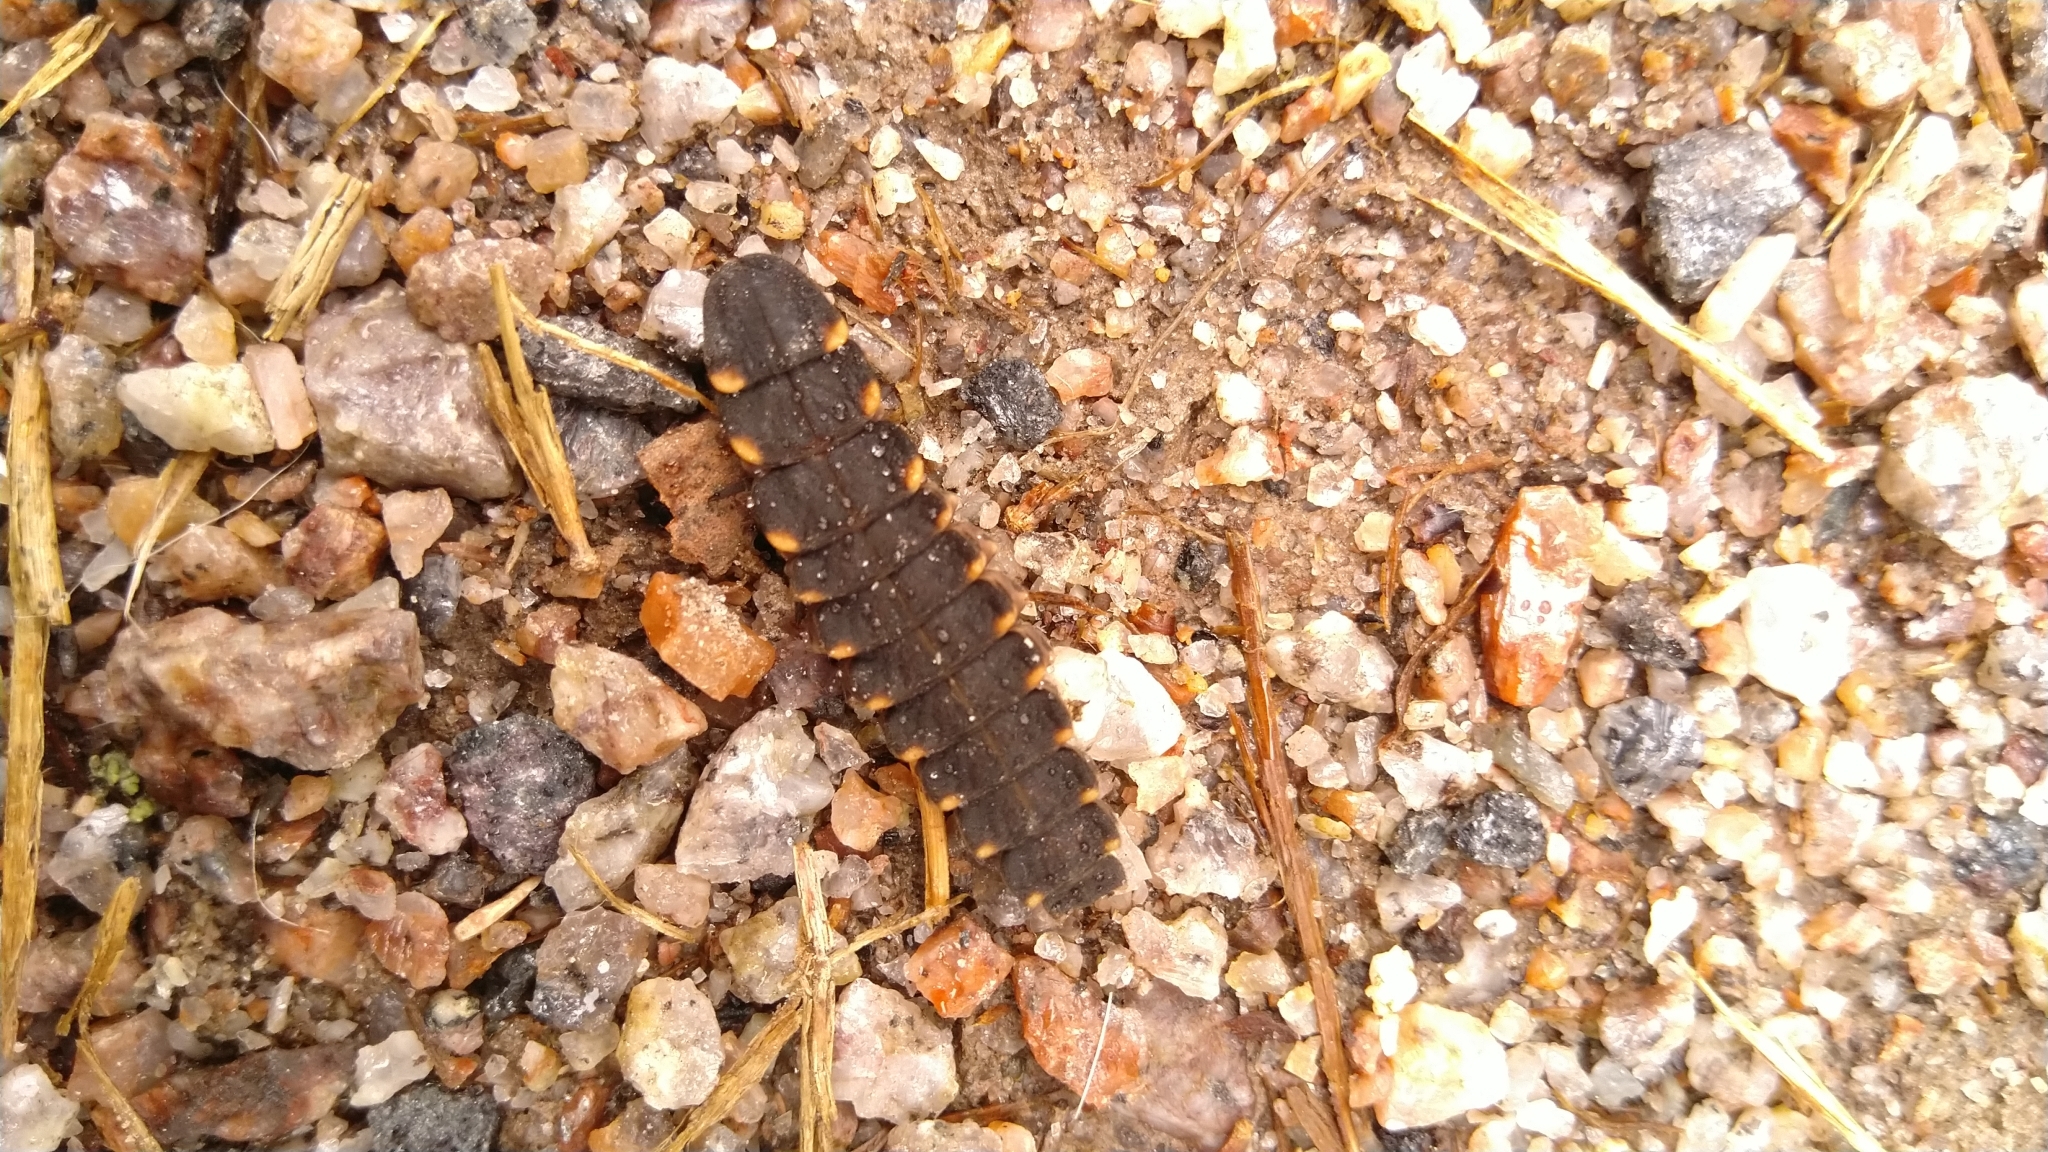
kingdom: Animalia
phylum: Arthropoda
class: Insecta
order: Coleoptera
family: Lampyridae
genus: Lampyris
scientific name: Lampyris noctiluca
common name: Glow-worm
